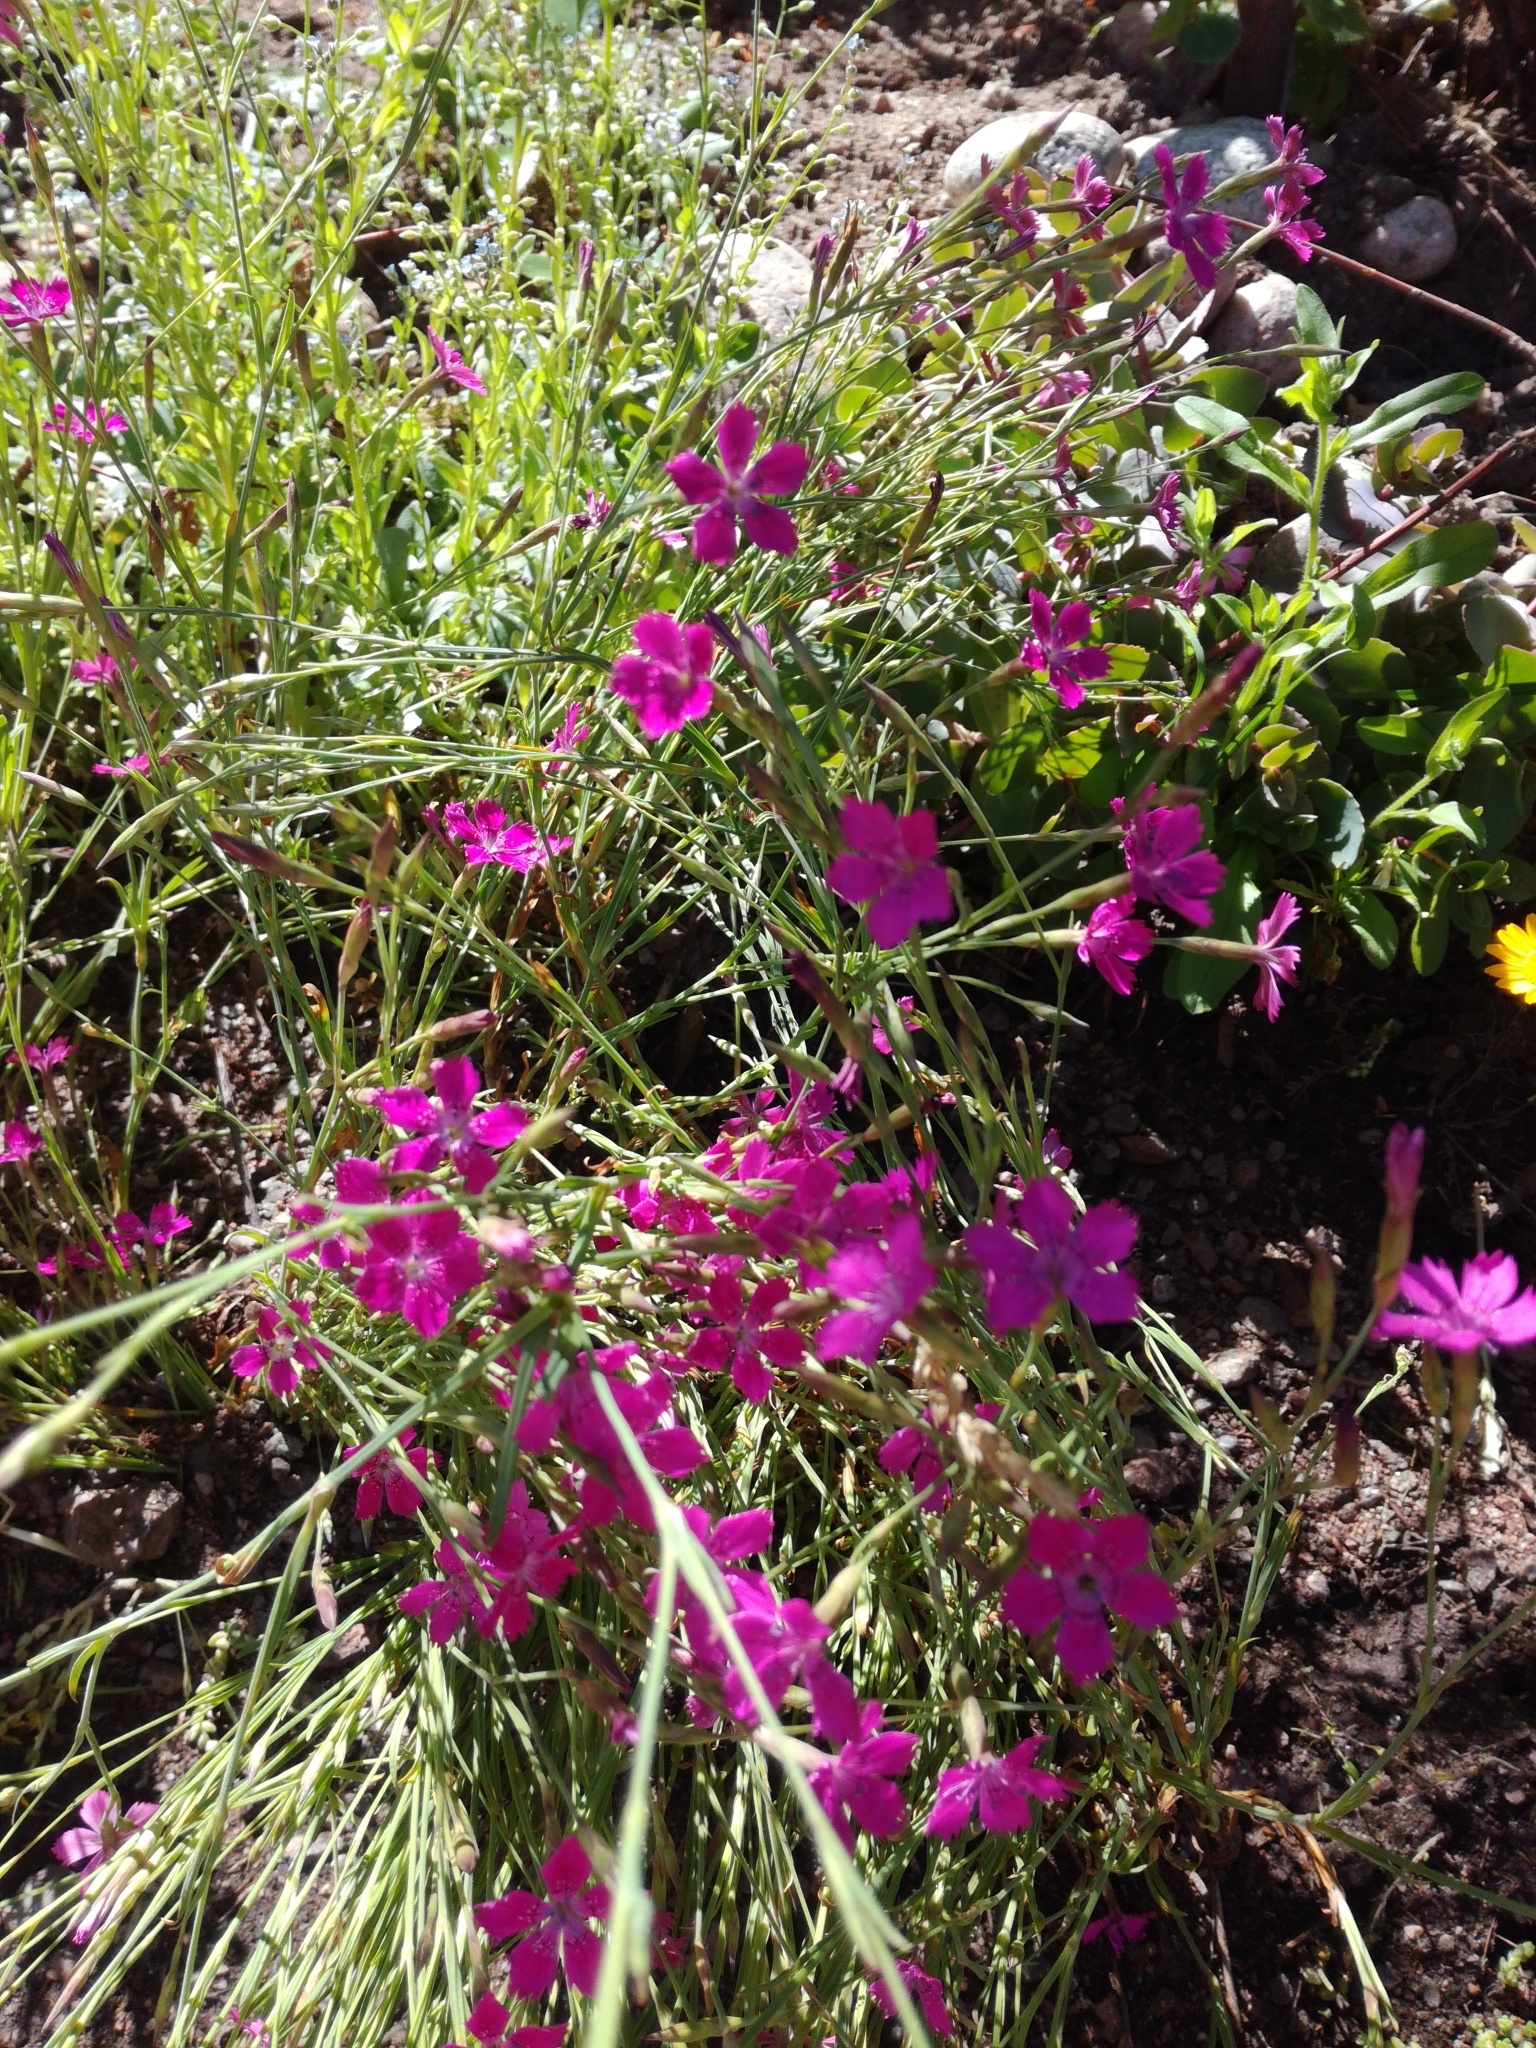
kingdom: Plantae
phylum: Tracheophyta
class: Magnoliopsida
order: Caryophyllales
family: Caryophyllaceae
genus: Dianthus
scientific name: Dianthus deltoides
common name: Maiden pink
